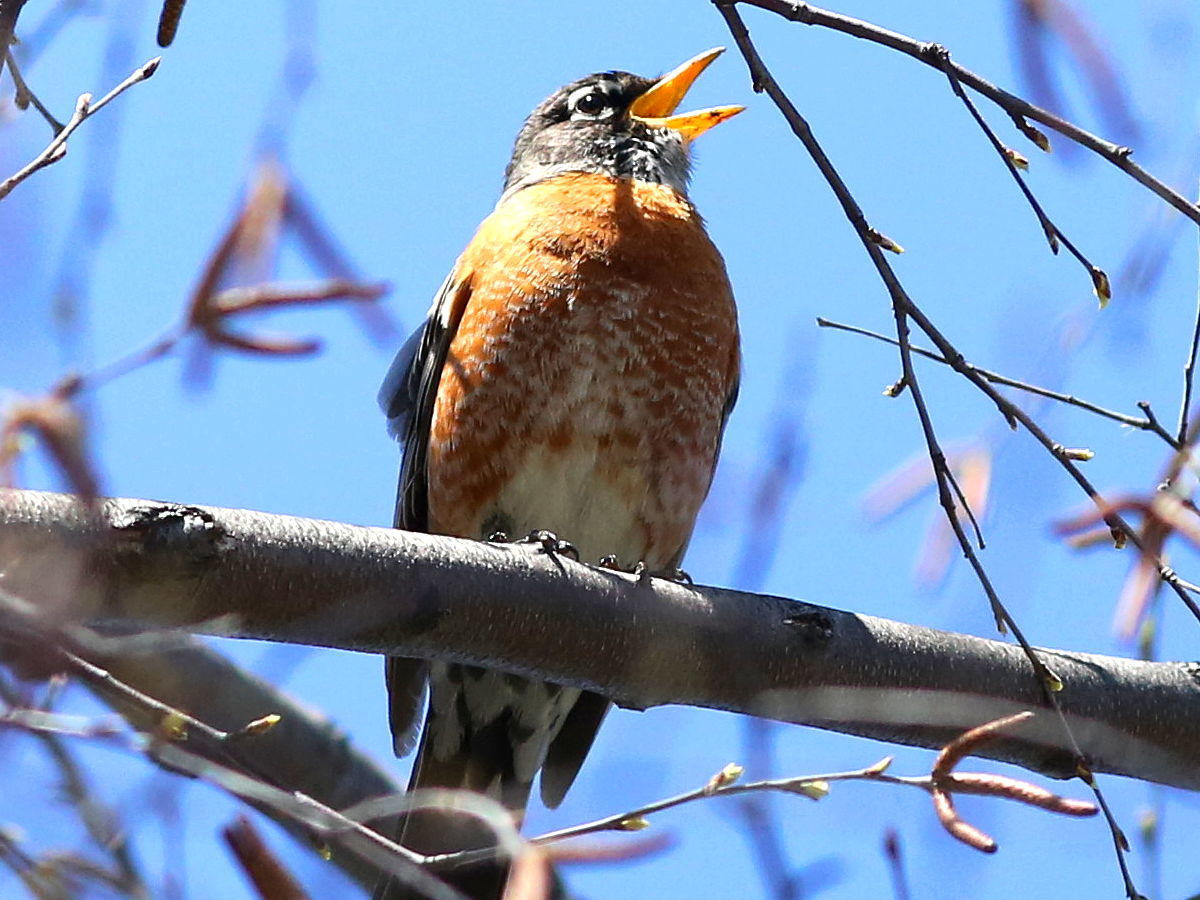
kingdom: Animalia
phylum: Chordata
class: Aves
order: Passeriformes
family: Turdidae
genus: Turdus
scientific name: Turdus migratorius
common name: American robin
